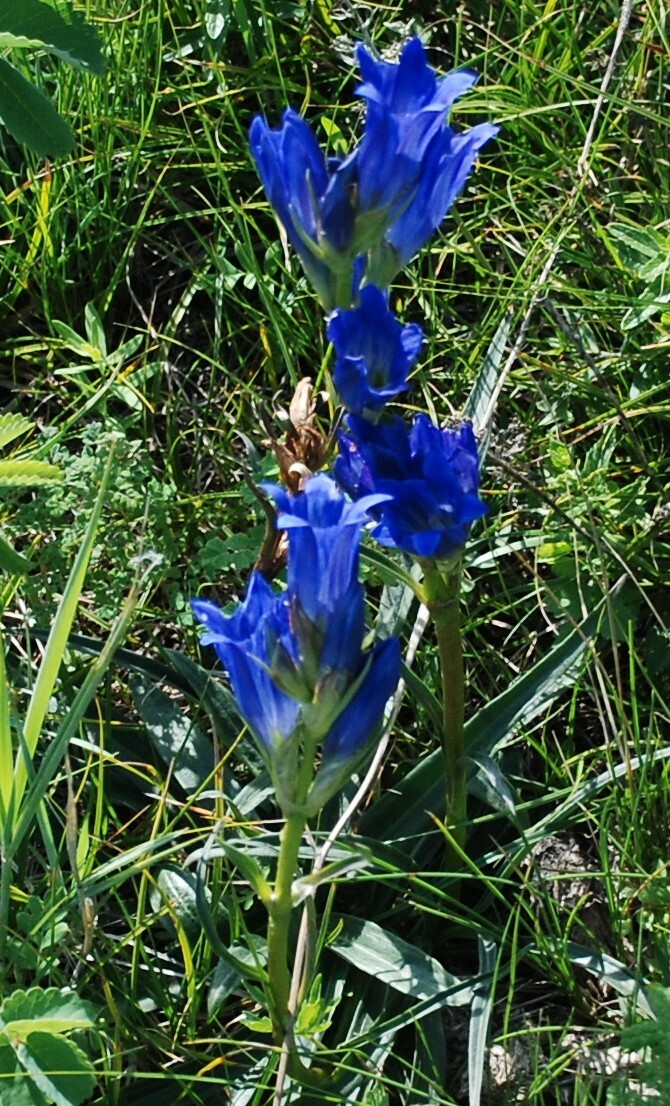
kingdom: Plantae
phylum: Tracheophyta
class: Magnoliopsida
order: Gentianales
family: Gentianaceae
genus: Gentiana
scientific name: Gentiana decumbens
